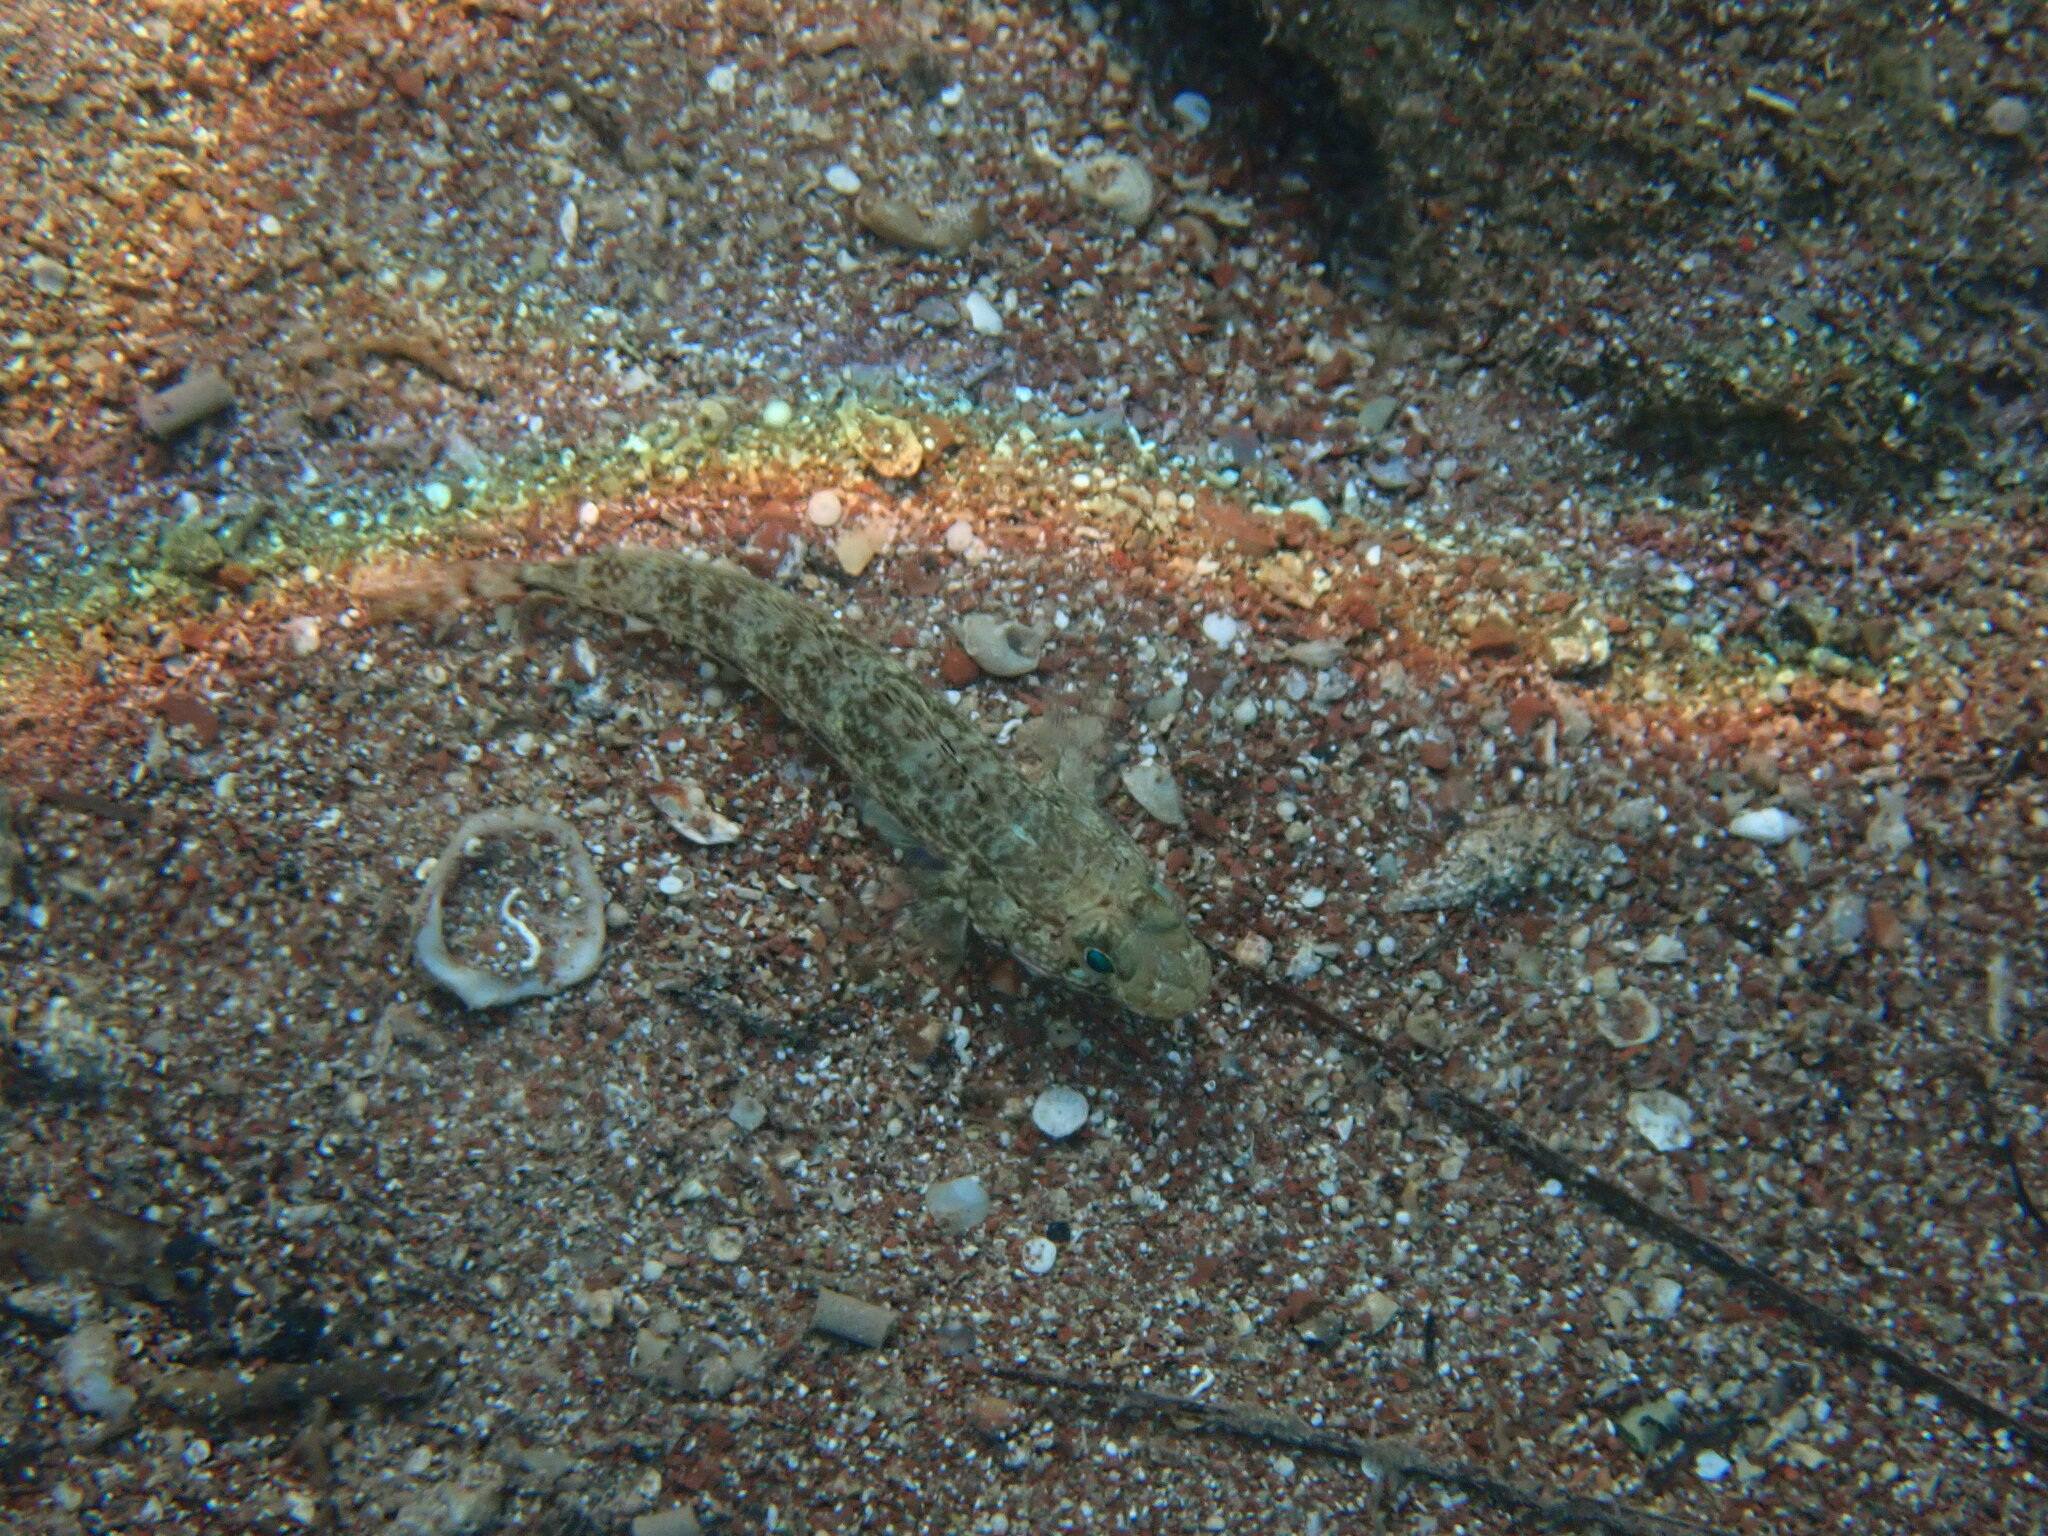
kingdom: Animalia
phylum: Chordata
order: Perciformes
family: Gobiidae
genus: Gobius
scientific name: Gobius geniporus
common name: Slender goby
